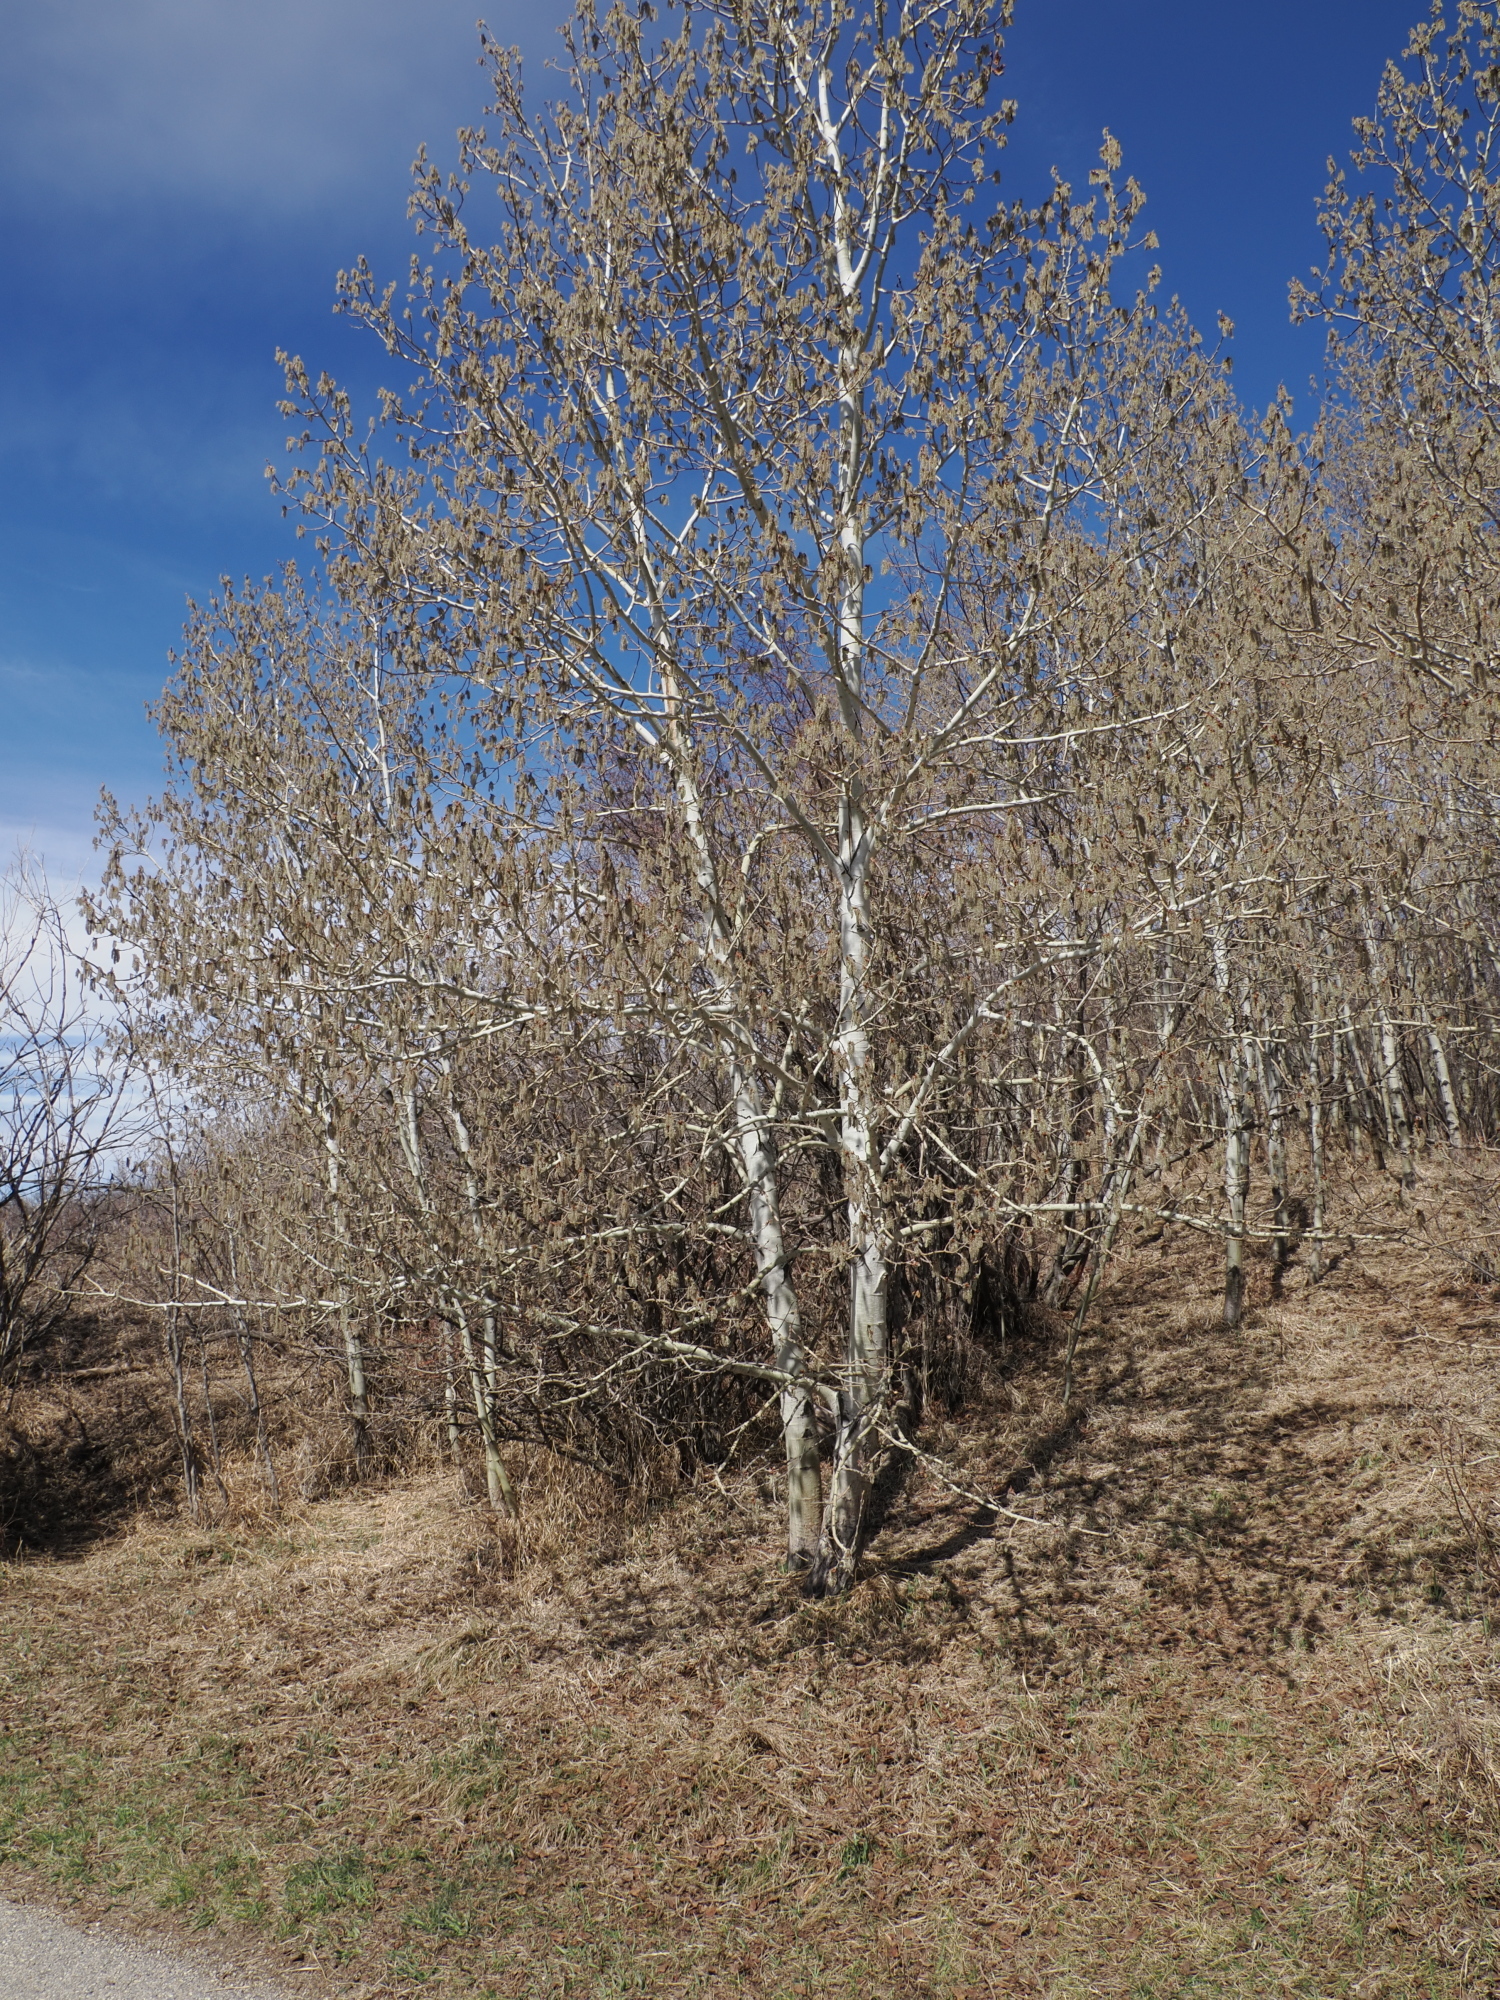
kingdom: Plantae
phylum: Tracheophyta
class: Magnoliopsida
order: Malpighiales
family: Salicaceae
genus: Populus
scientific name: Populus tremuloides
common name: Quaking aspen
